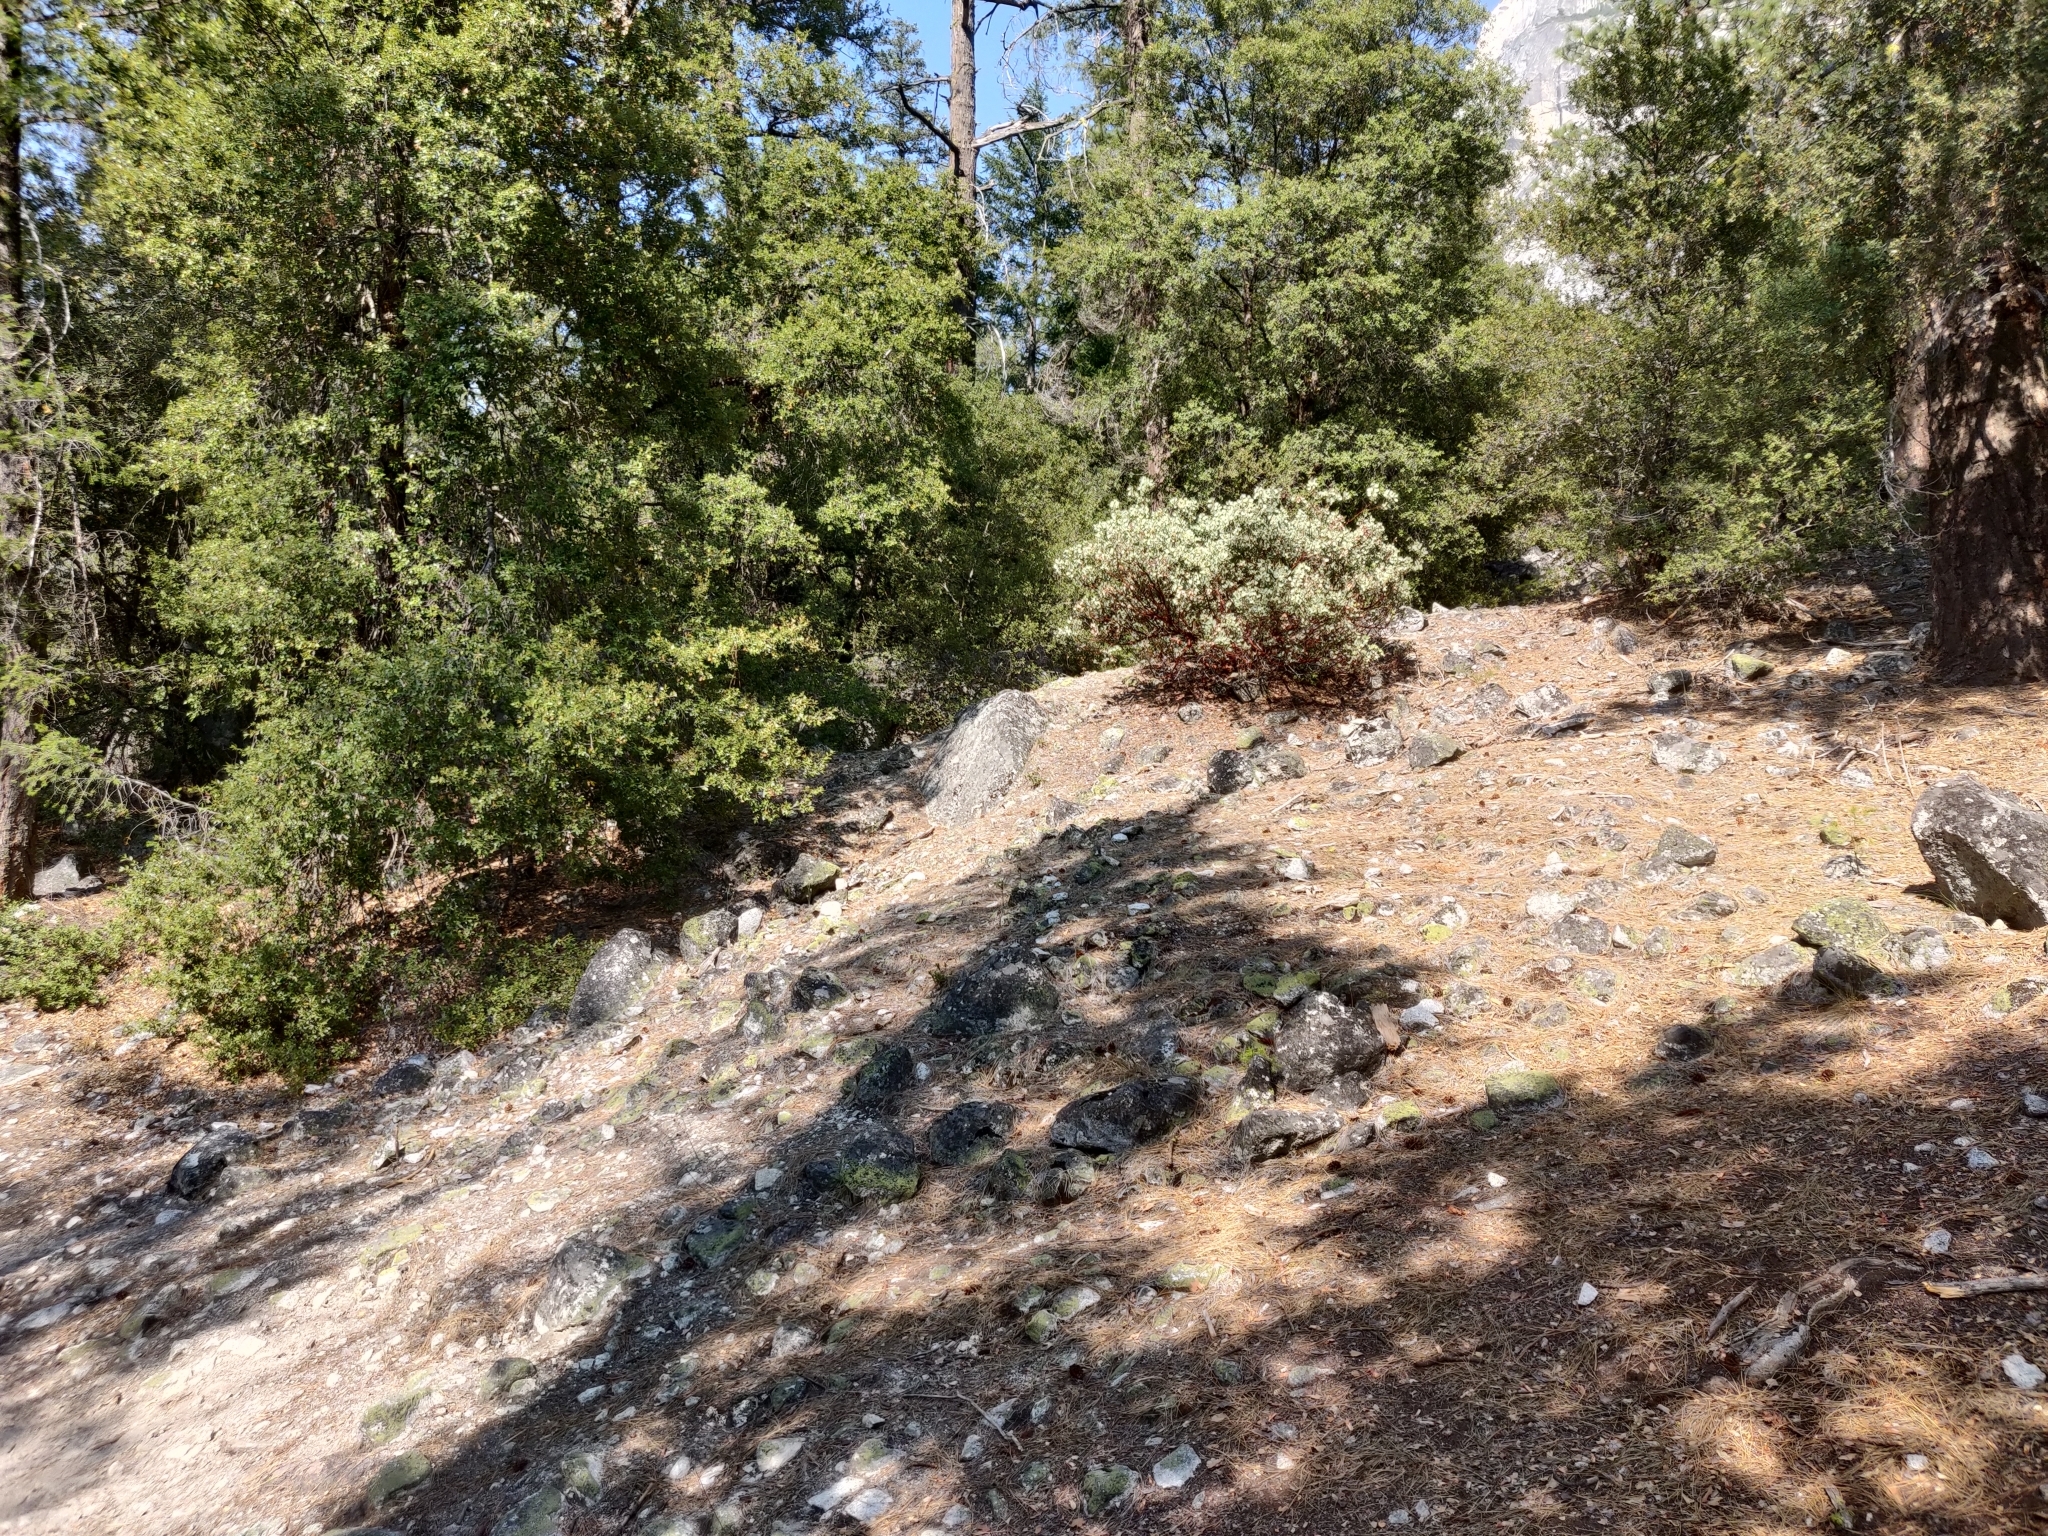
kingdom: Plantae
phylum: Tracheophyta
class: Magnoliopsida
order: Ericales
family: Ericaceae
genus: Arctostaphylos
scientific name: Arctostaphylos viscida
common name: White-leaf manzanita
